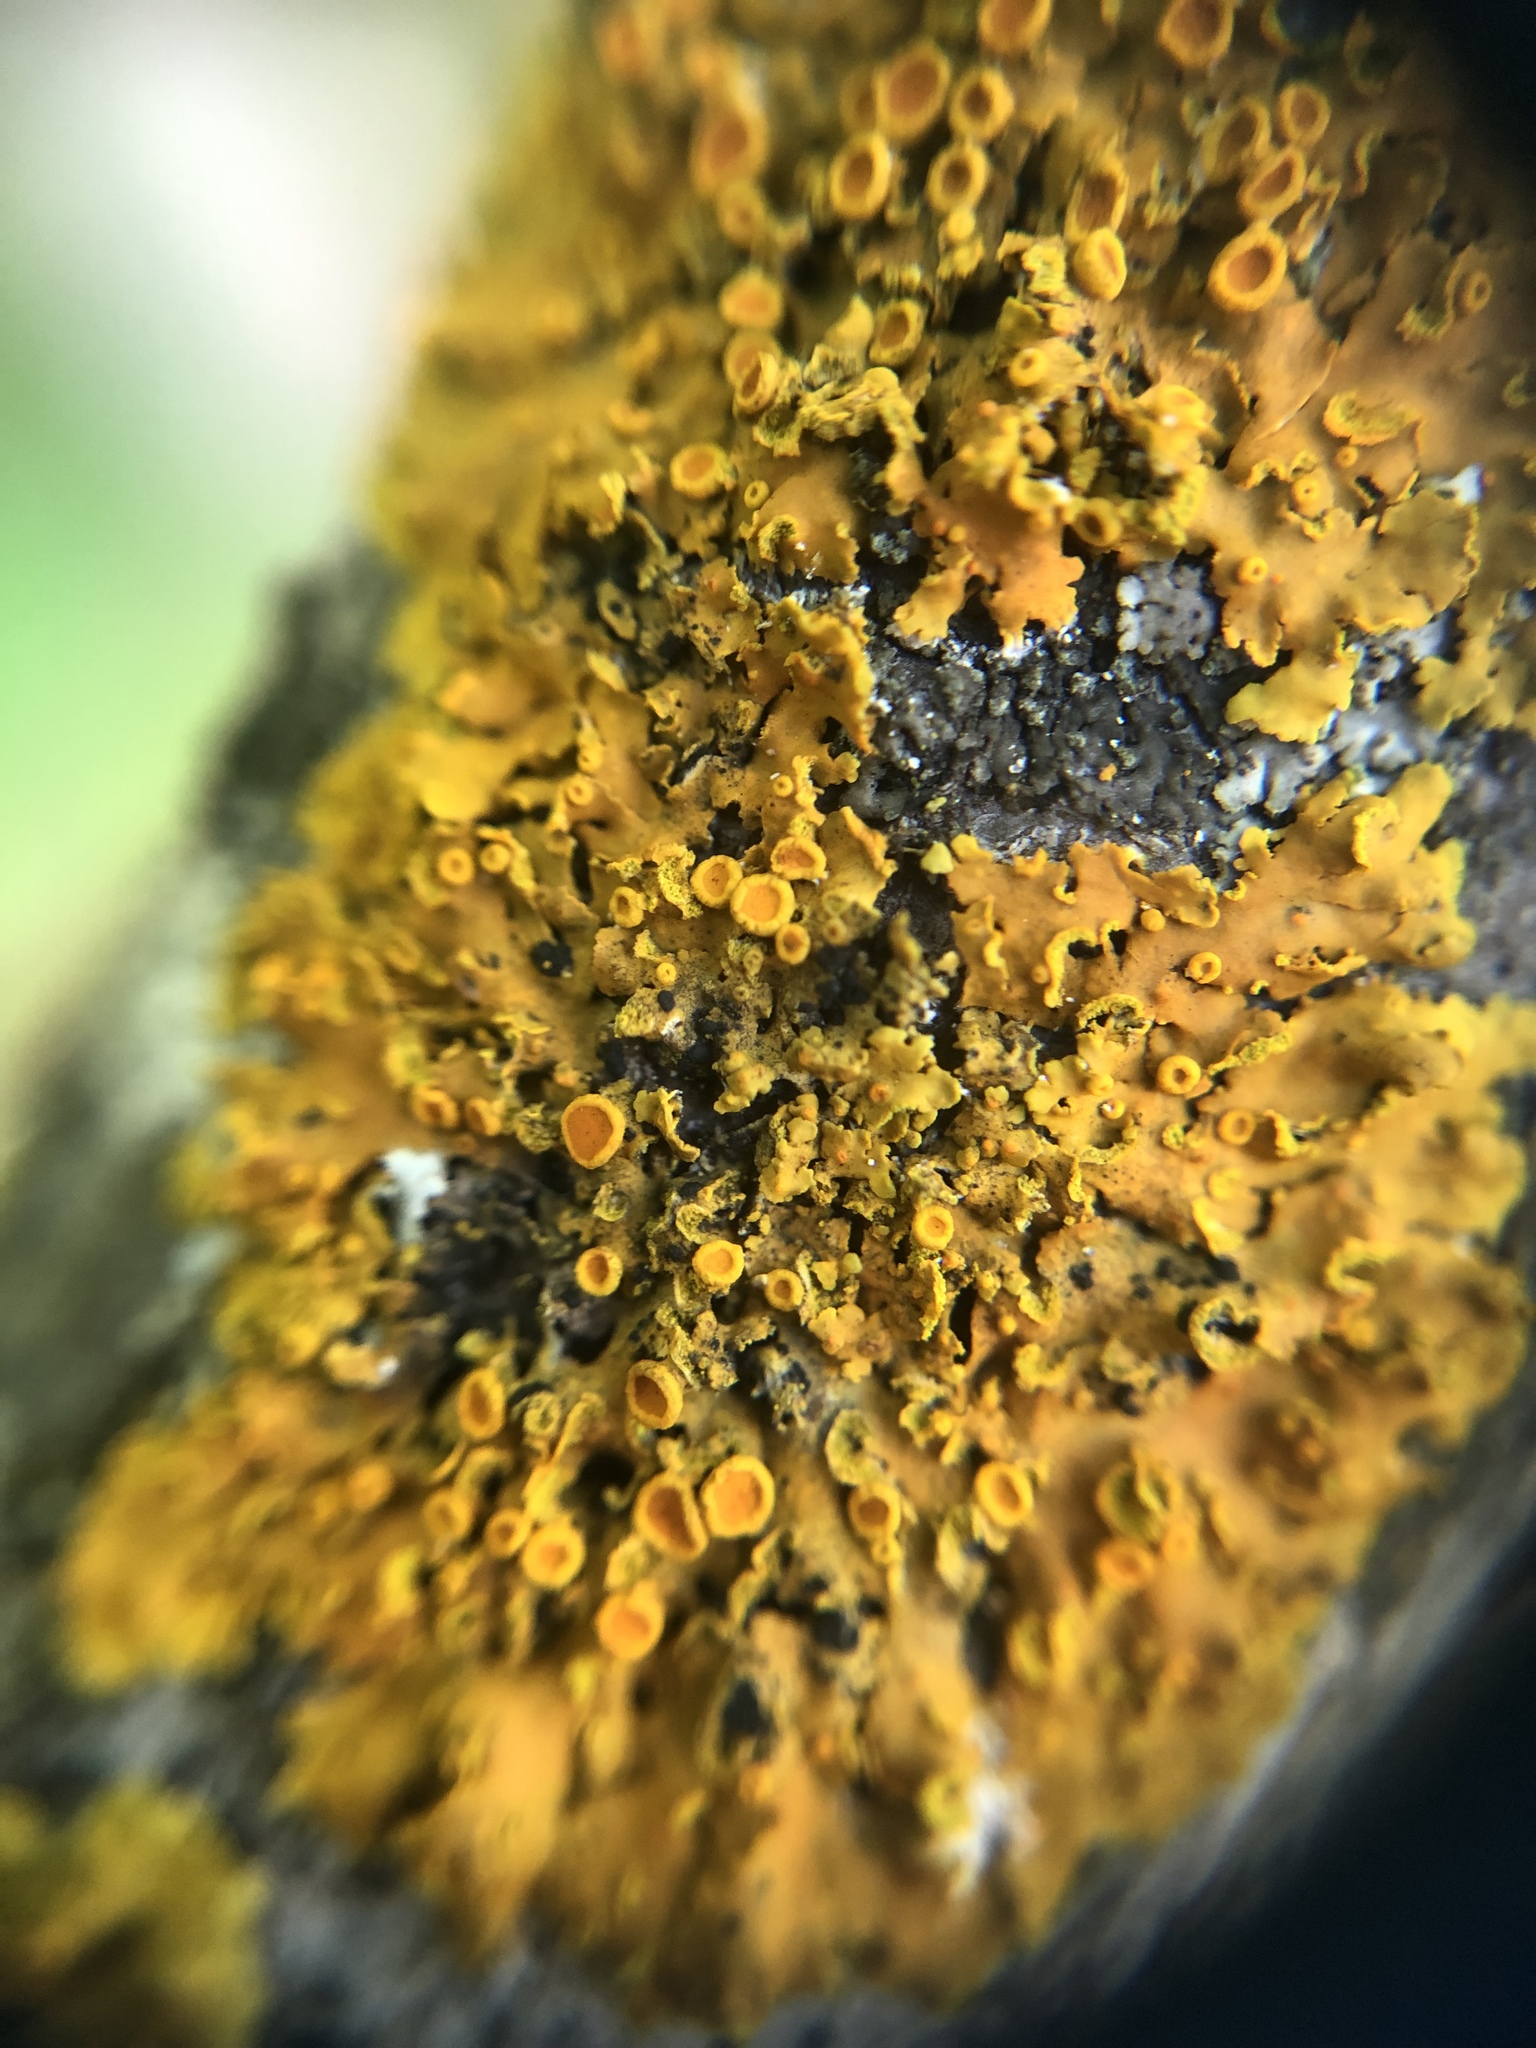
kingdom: Fungi
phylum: Ascomycota
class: Lecanoromycetes
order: Teloschistales
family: Teloschistaceae
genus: Oxneria
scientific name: Oxneria fallax
